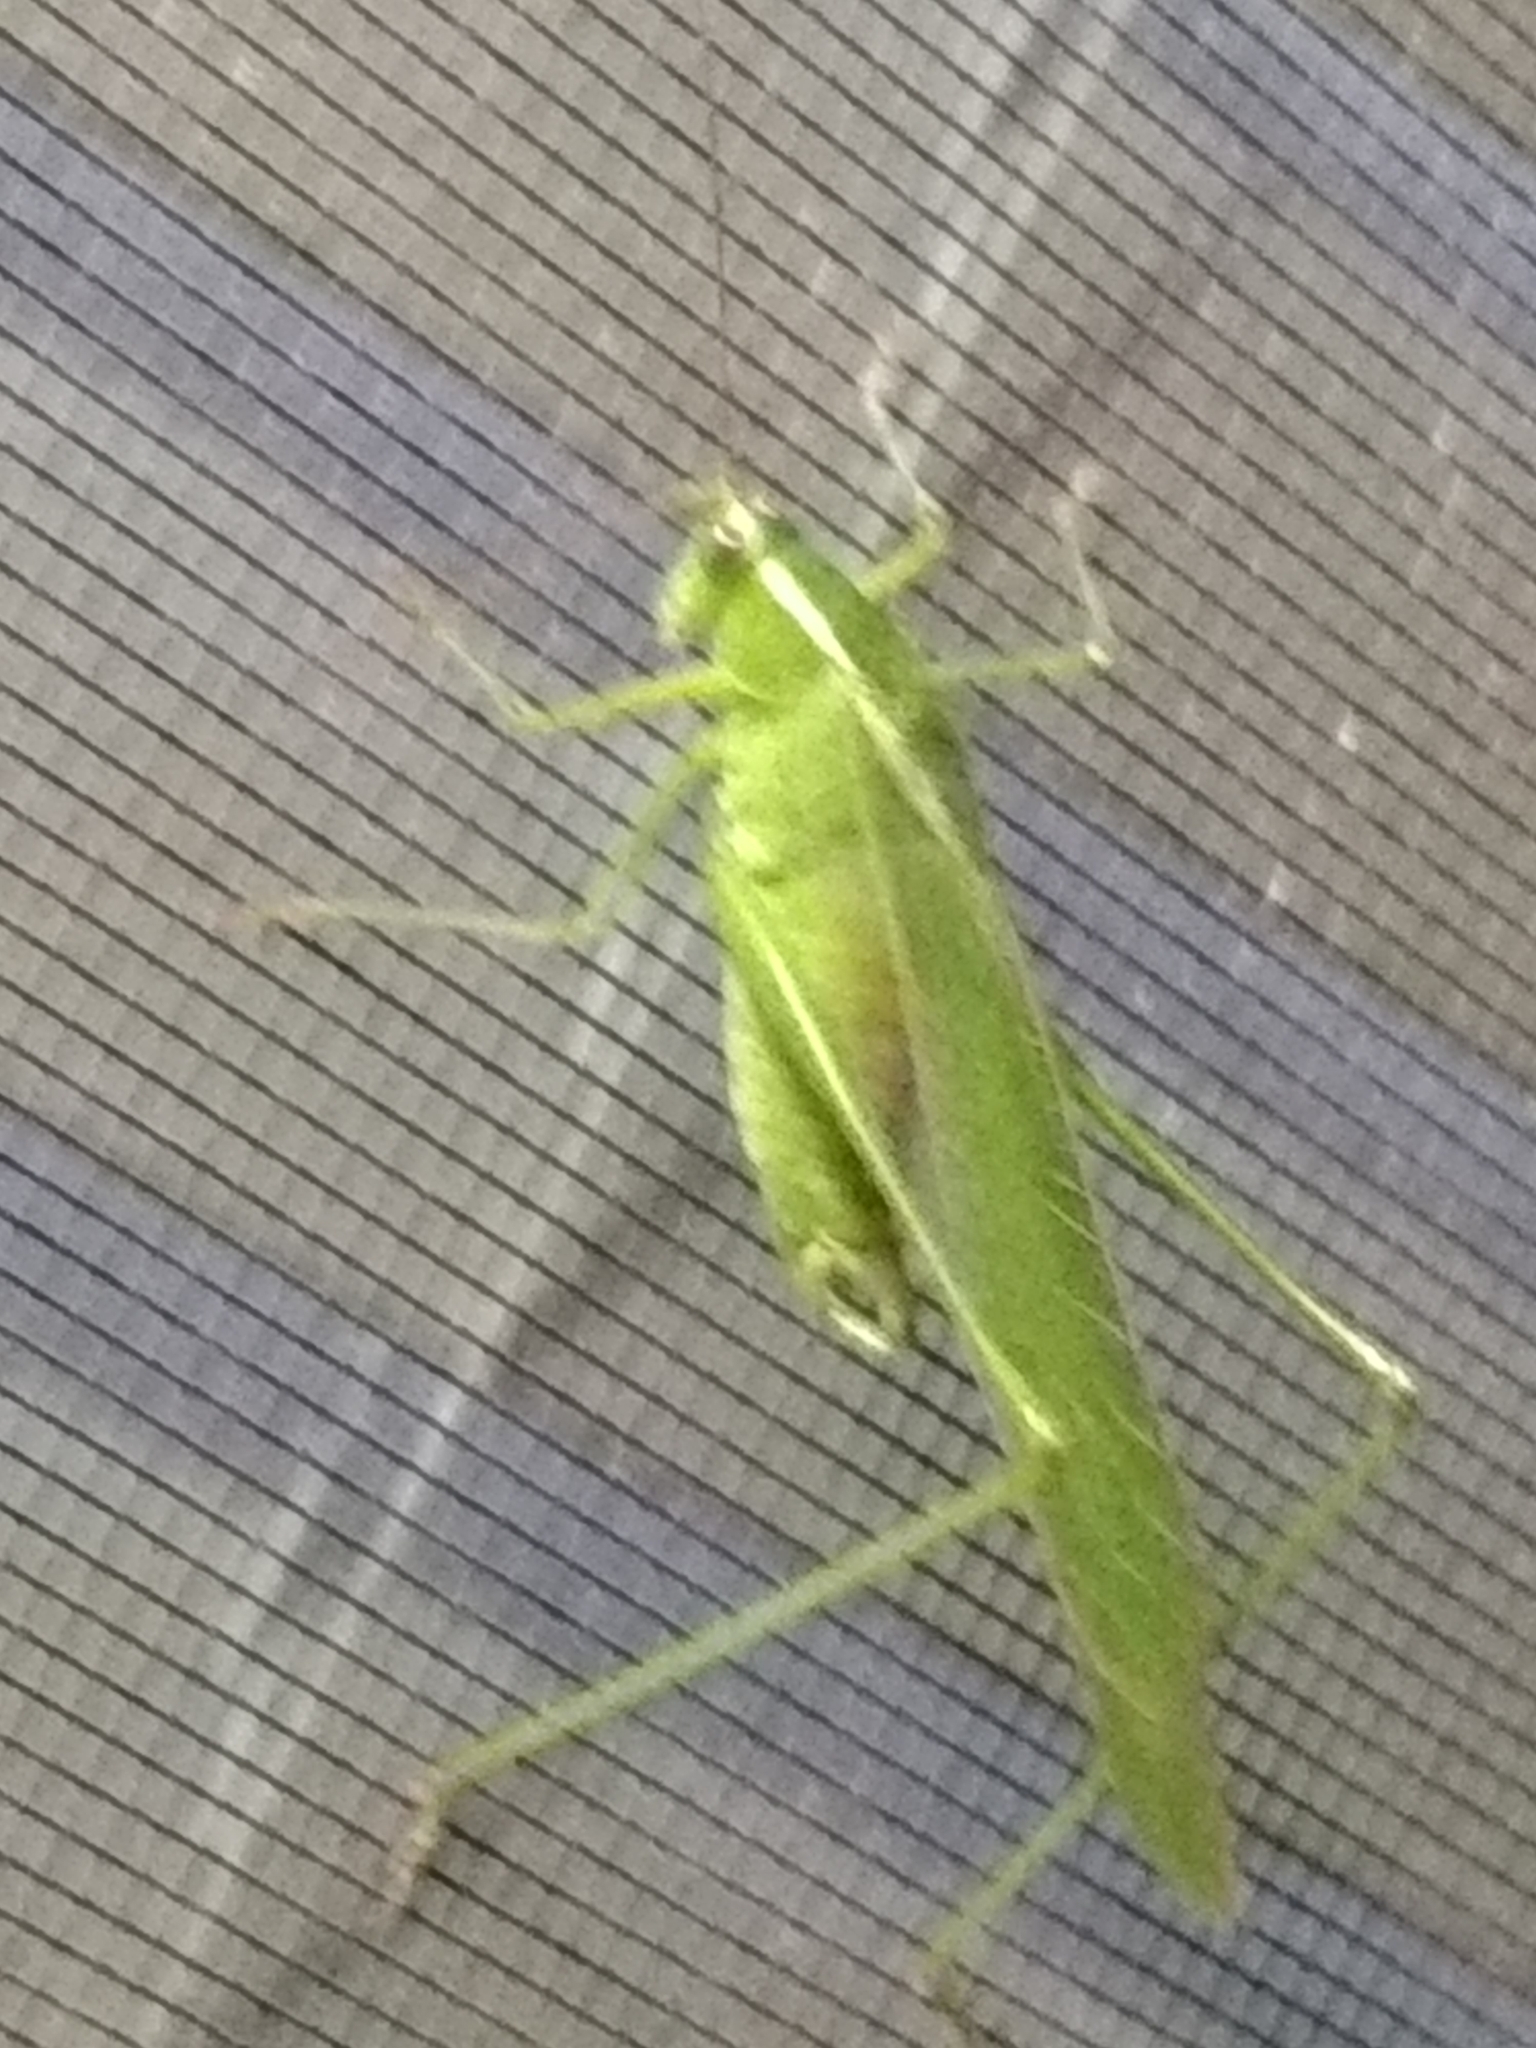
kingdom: Animalia
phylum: Arthropoda
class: Insecta
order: Orthoptera
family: Tettigoniidae
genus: Scudderia
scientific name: Scudderia mexicana
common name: Mexican bush katydid
